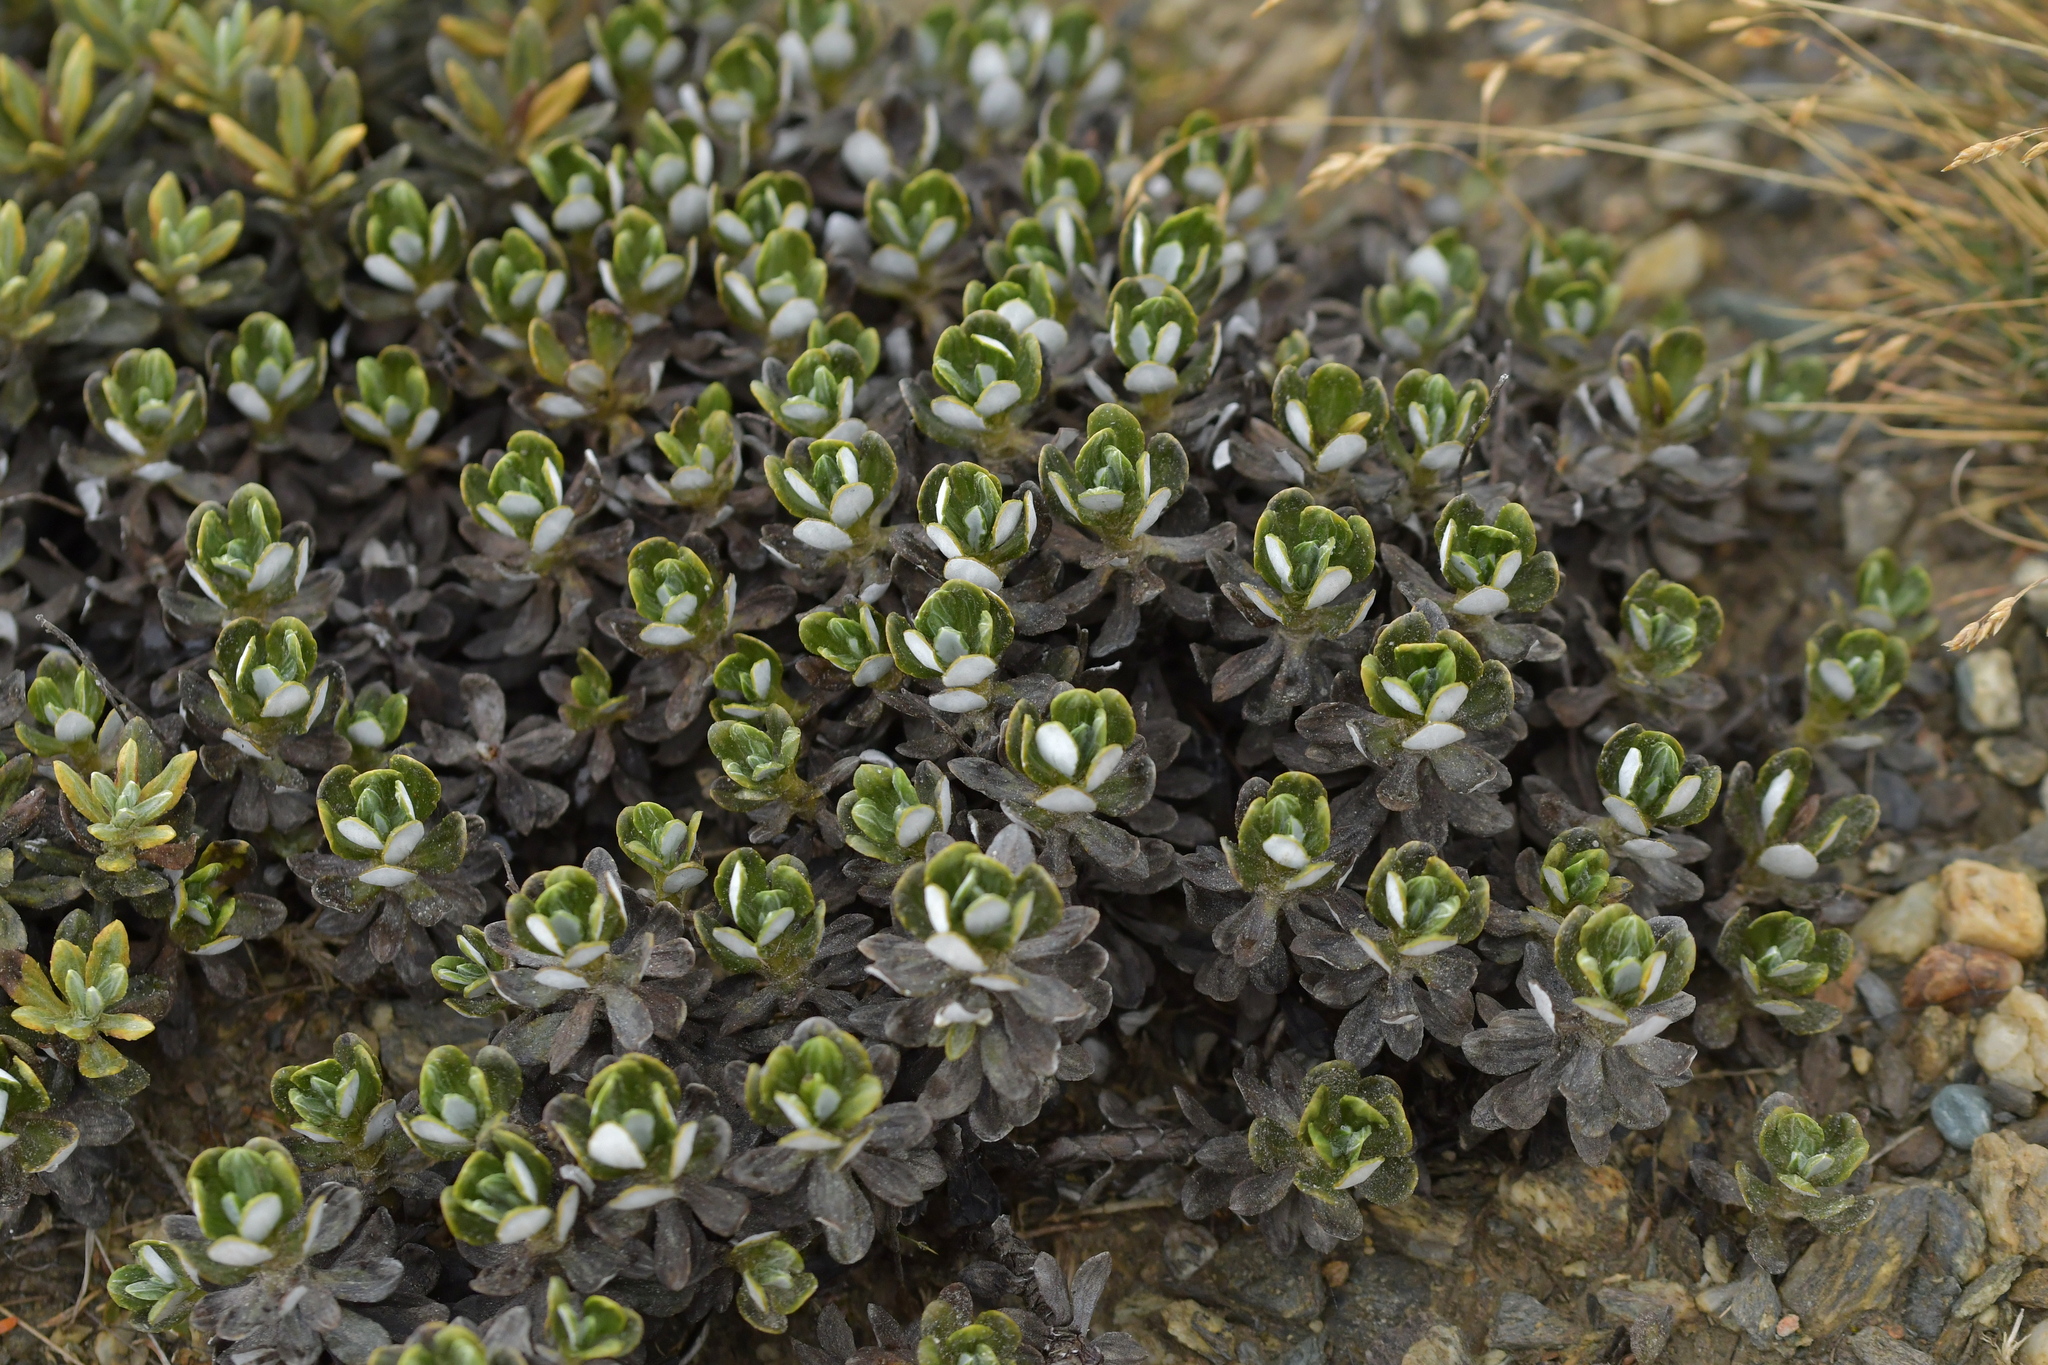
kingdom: Plantae
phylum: Tracheophyta
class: Magnoliopsida
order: Asterales
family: Asteraceae
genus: Celmisia
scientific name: Celmisia brevifolia
